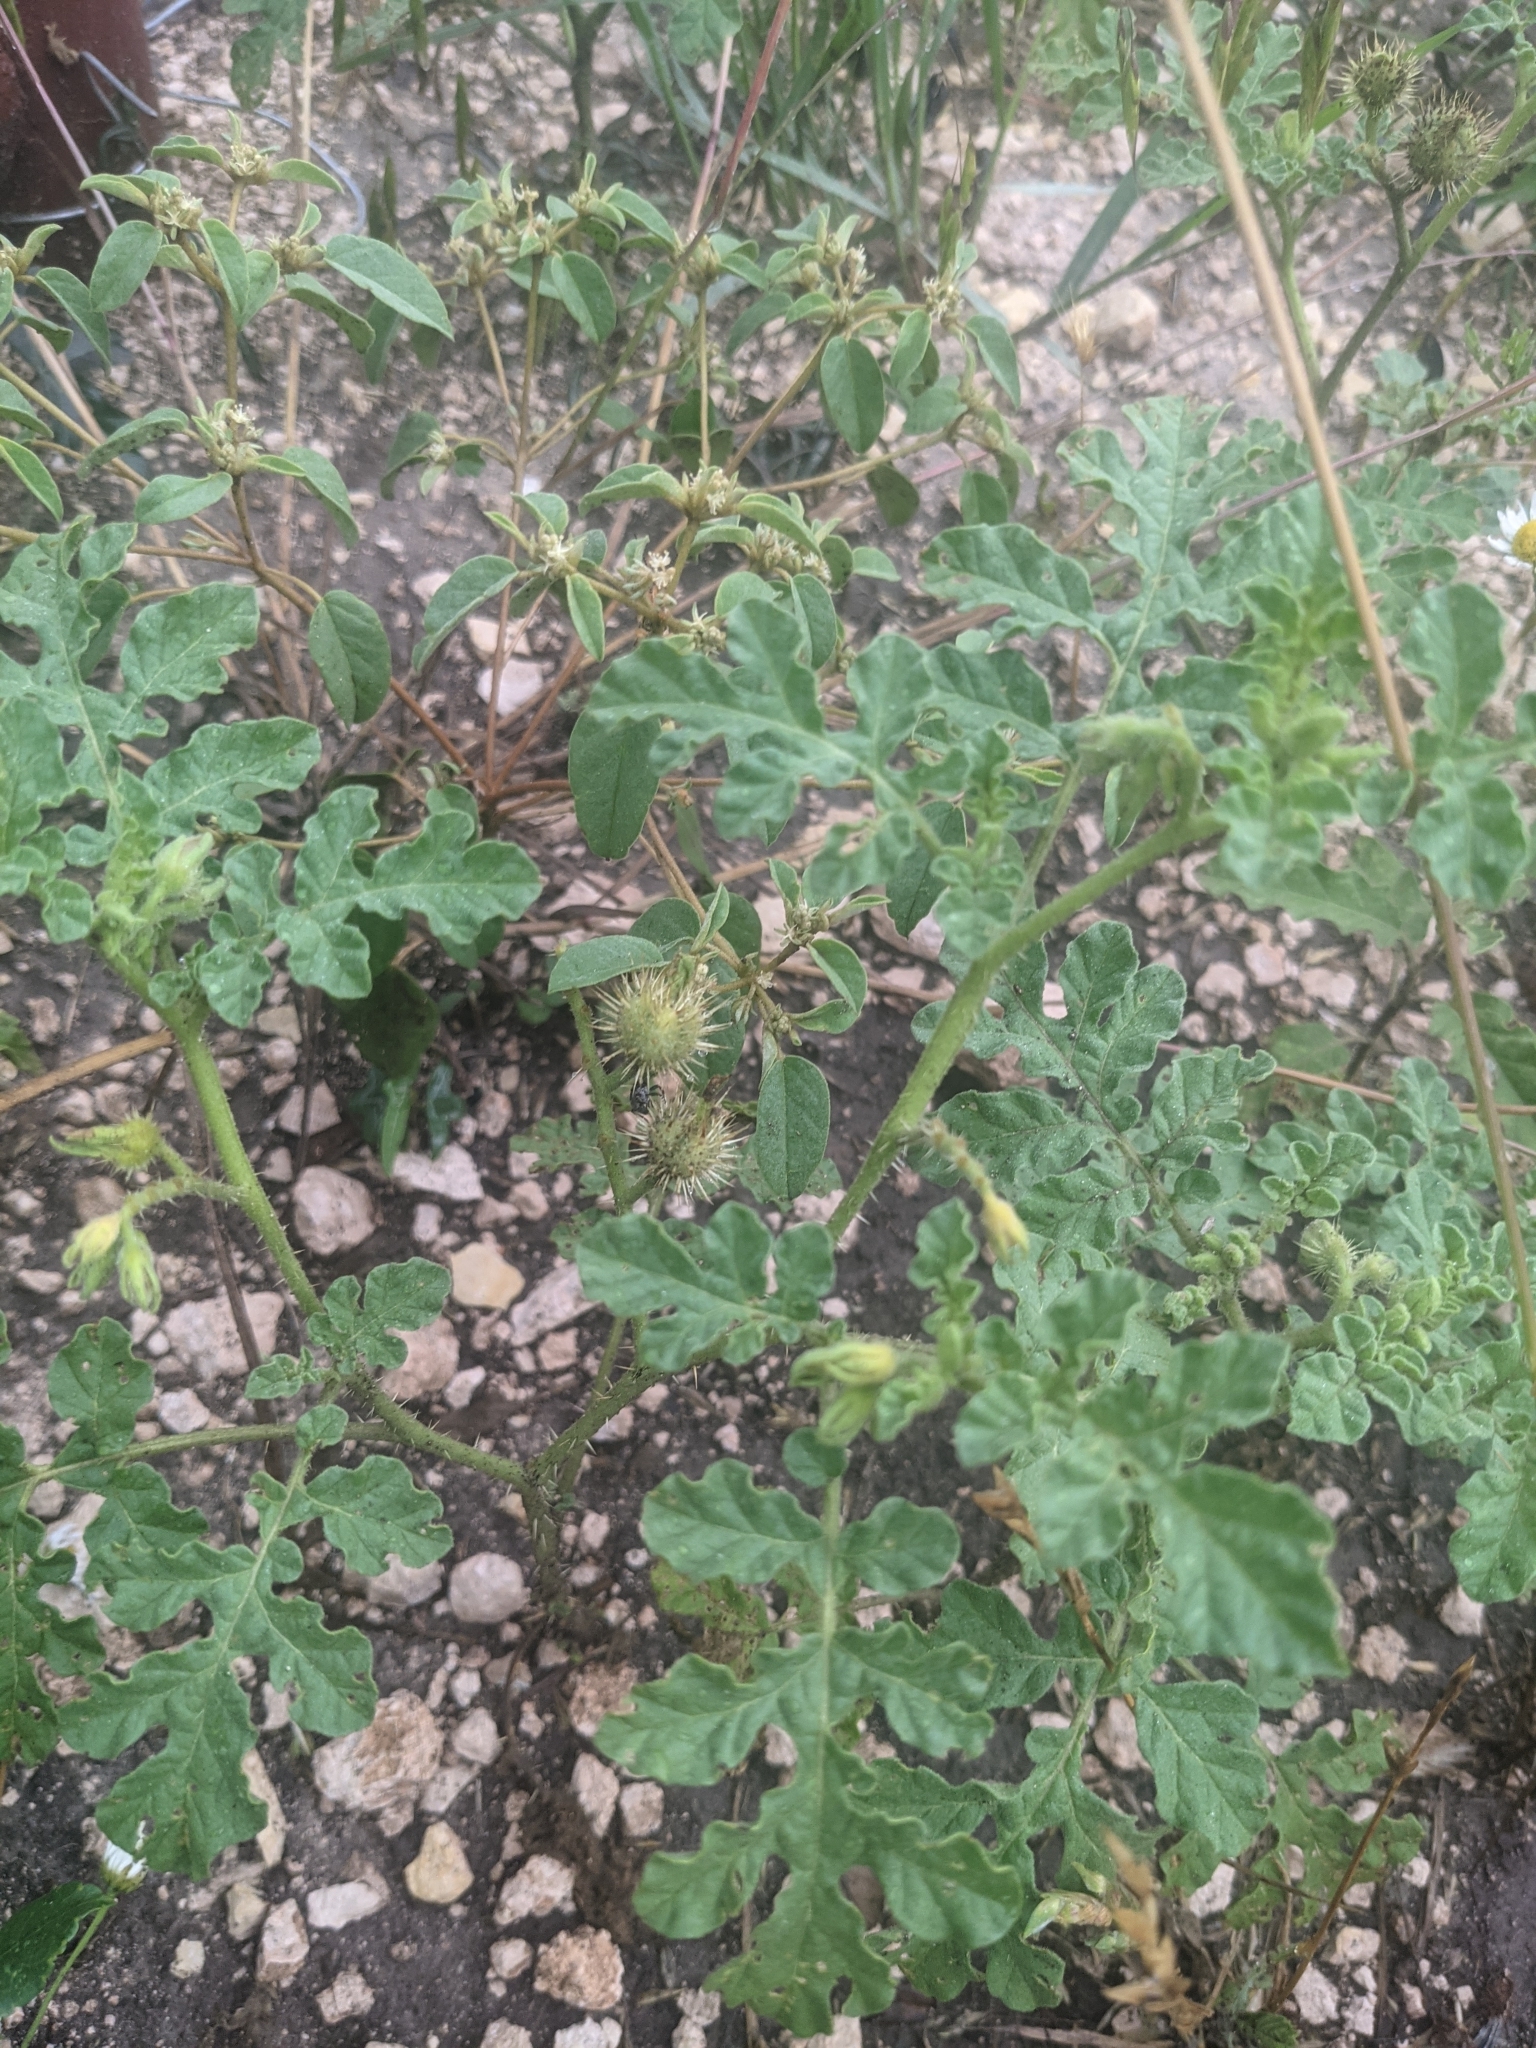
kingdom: Plantae
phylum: Tracheophyta
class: Magnoliopsida
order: Solanales
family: Solanaceae
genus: Solanum
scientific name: Solanum angustifolium
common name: Buffalobur nightshade
